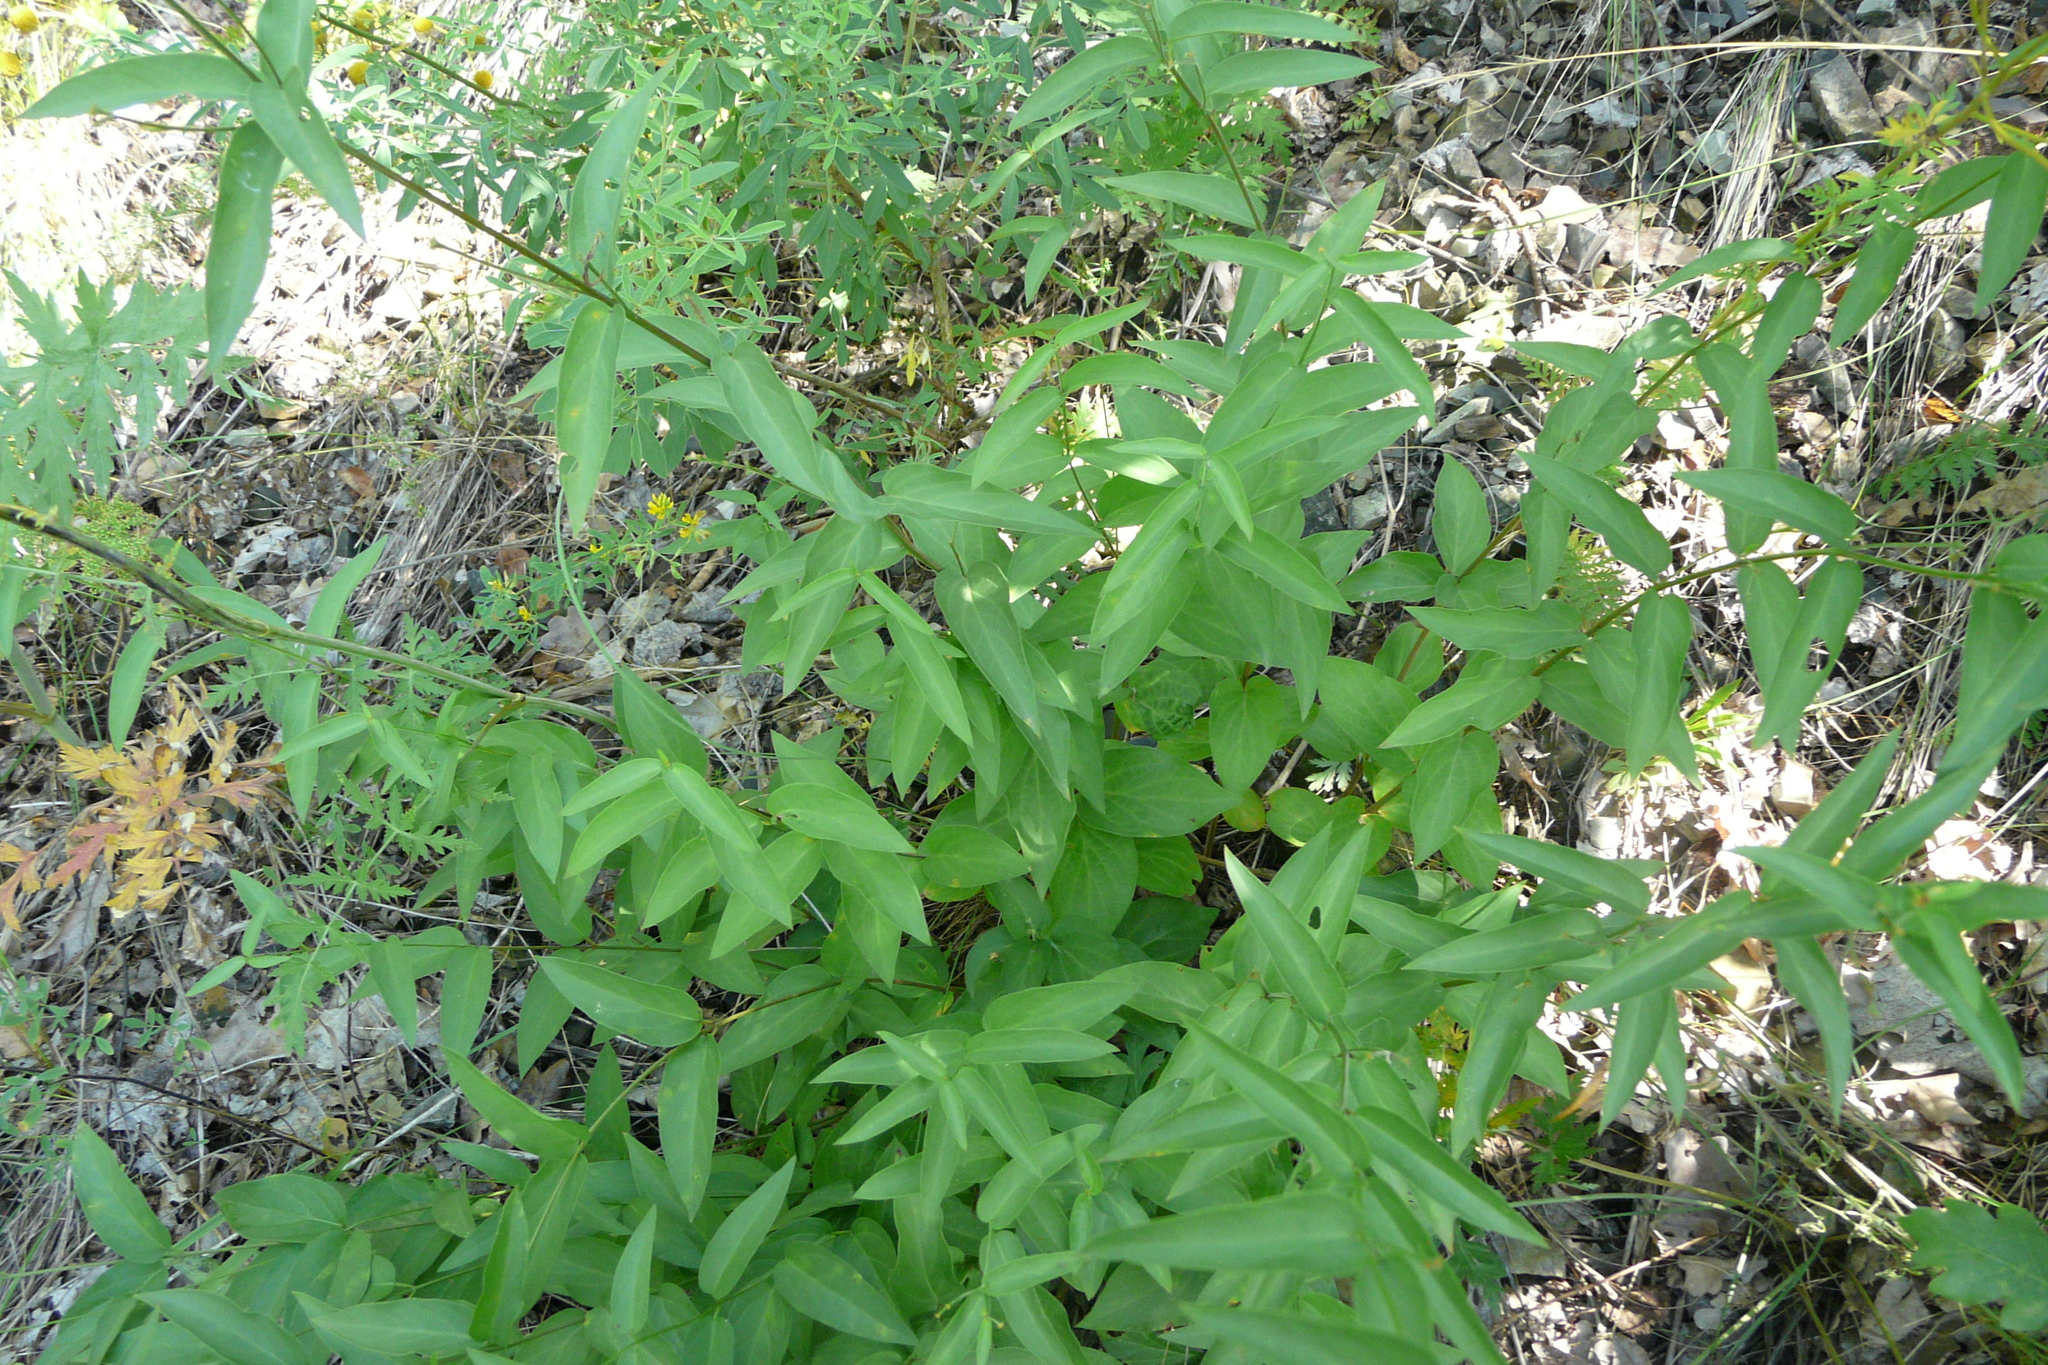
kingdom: Plantae
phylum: Tracheophyta
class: Magnoliopsida
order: Gentianales
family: Apocynaceae
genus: Vincetoxicum
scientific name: Vincetoxicum hirundinaria
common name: White swallowwort
